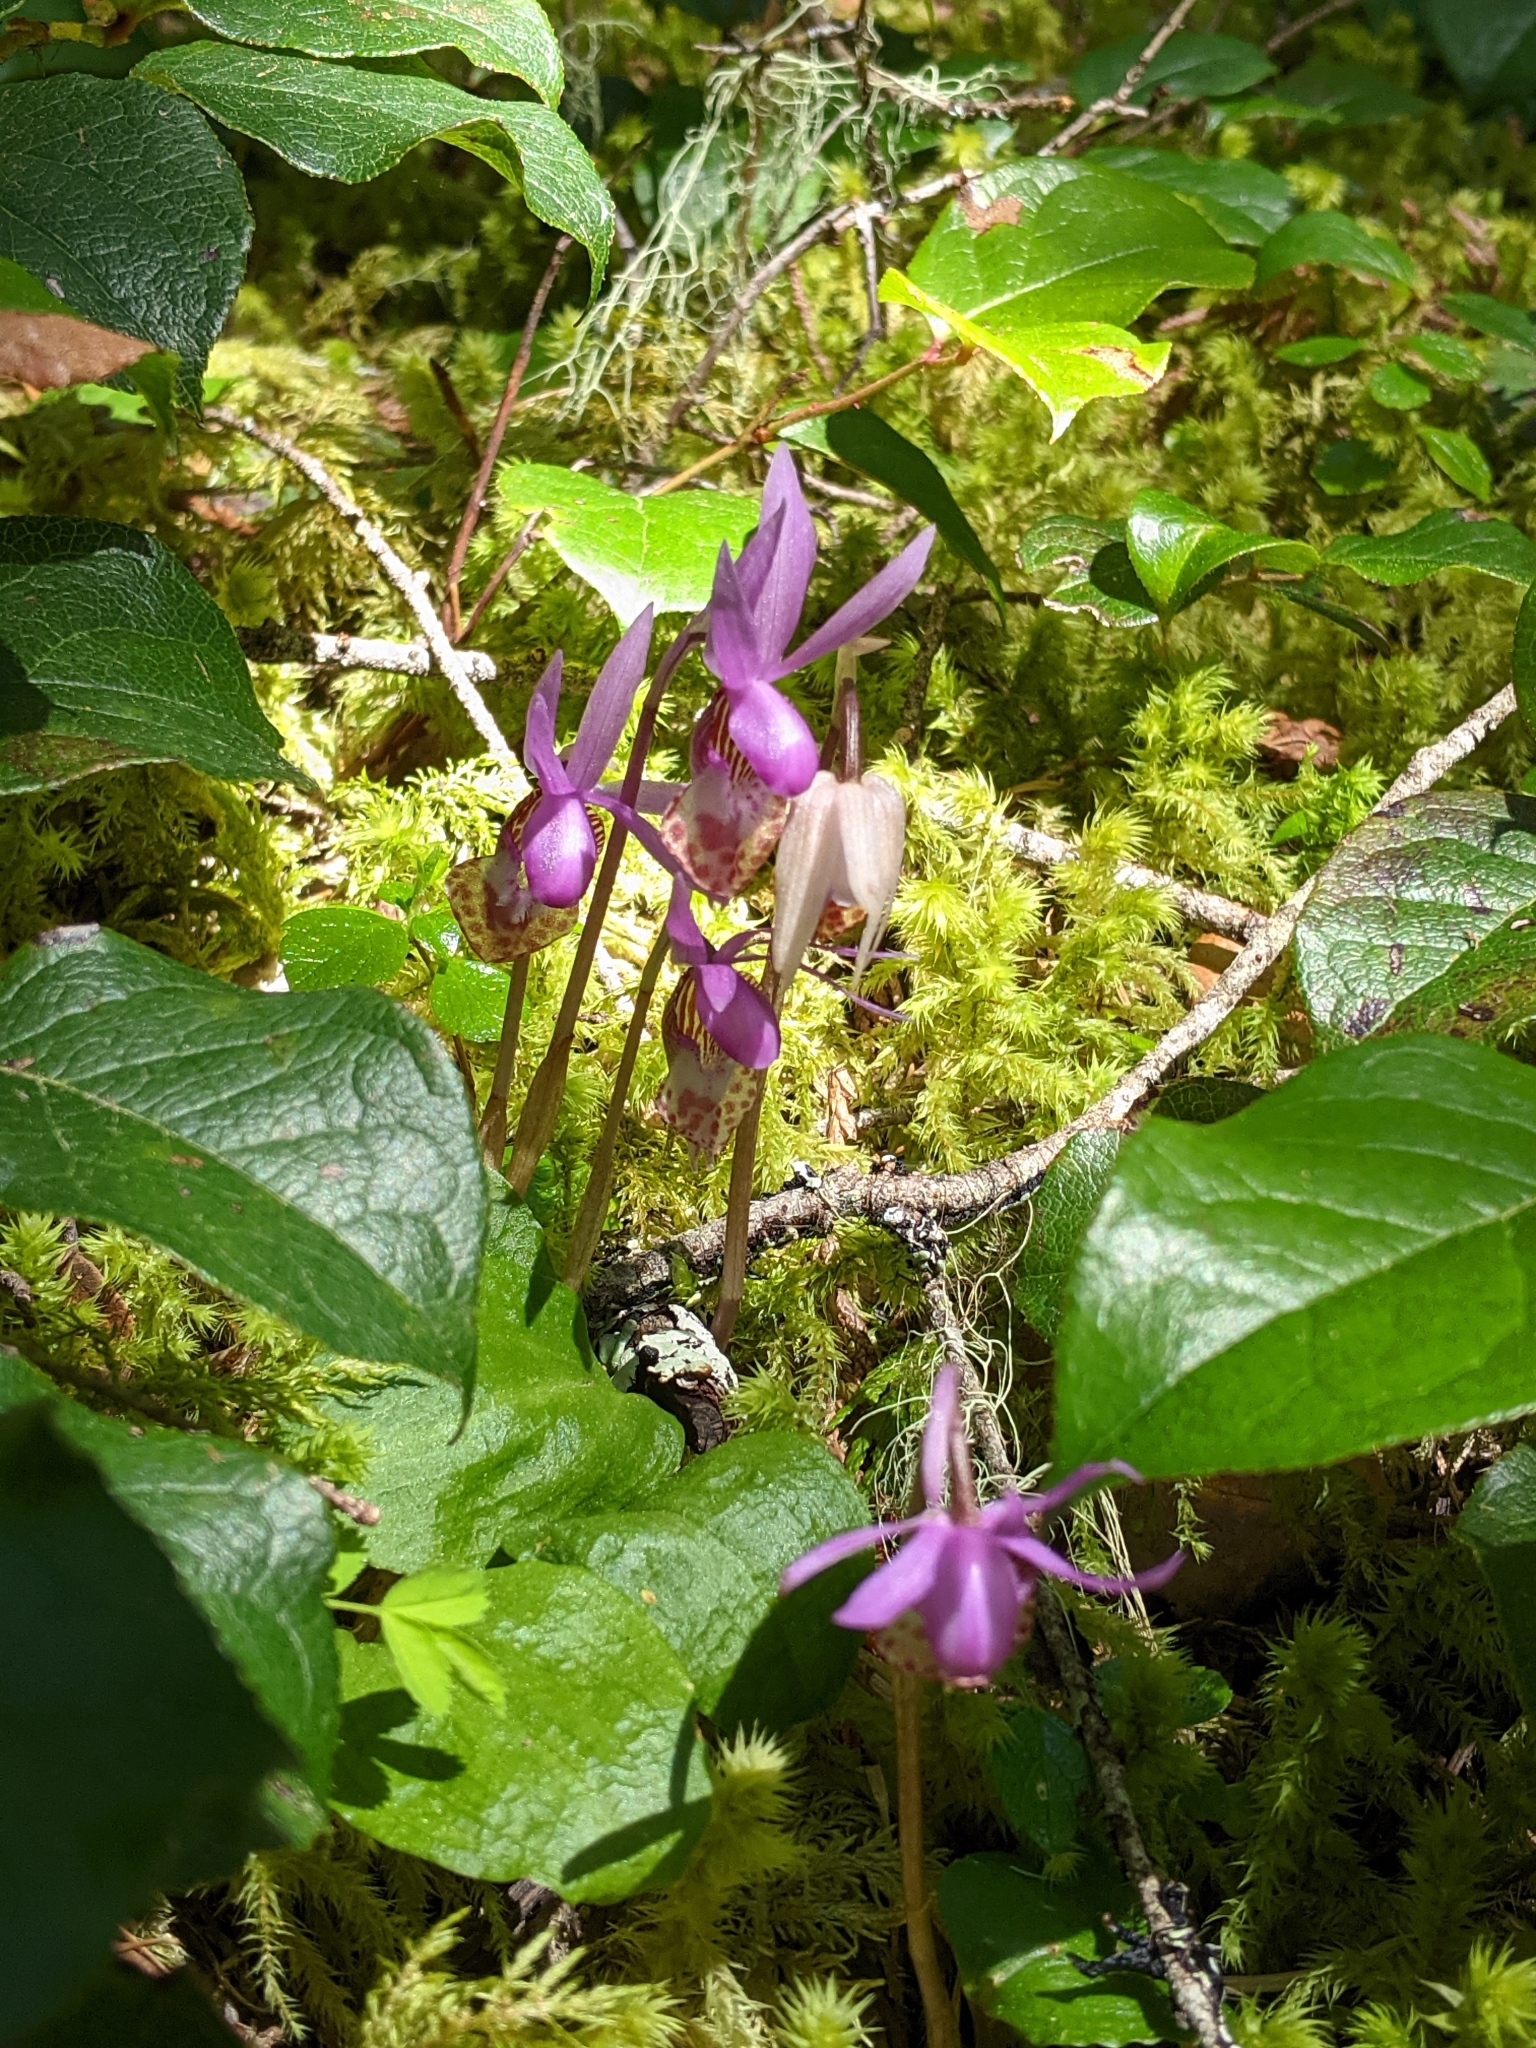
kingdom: Plantae
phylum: Tracheophyta
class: Liliopsida
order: Asparagales
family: Orchidaceae
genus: Calypso
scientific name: Calypso bulbosa
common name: Calypso
